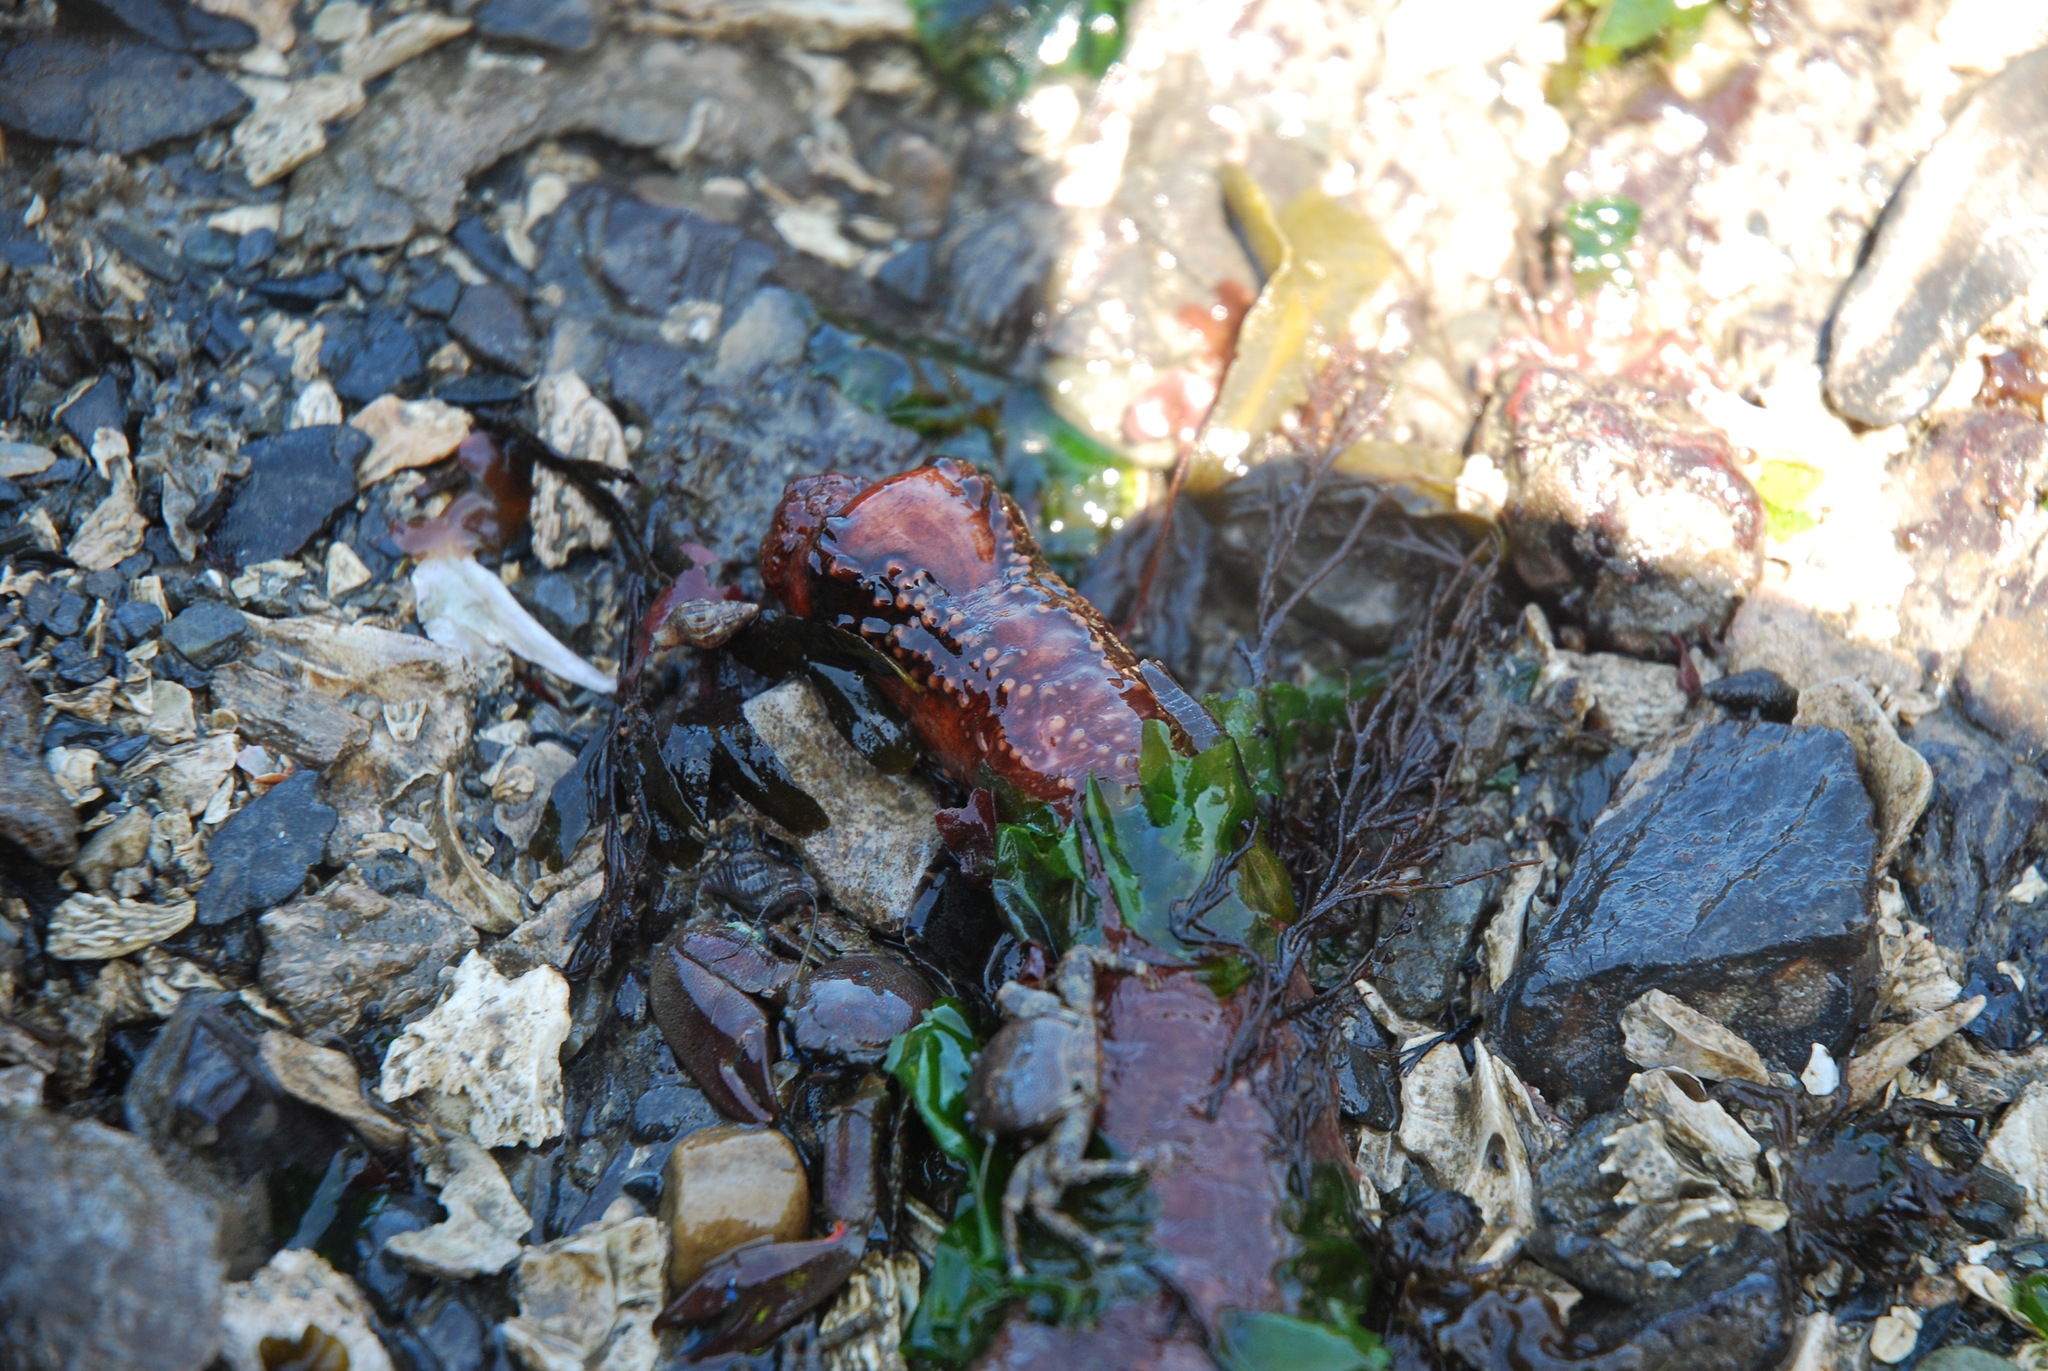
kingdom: Animalia
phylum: Echinodermata
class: Holothuroidea
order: Dendrochirotida
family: Cucumariidae
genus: Cucumaria
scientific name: Cucumaria miniata
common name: Orange sea cucumber
